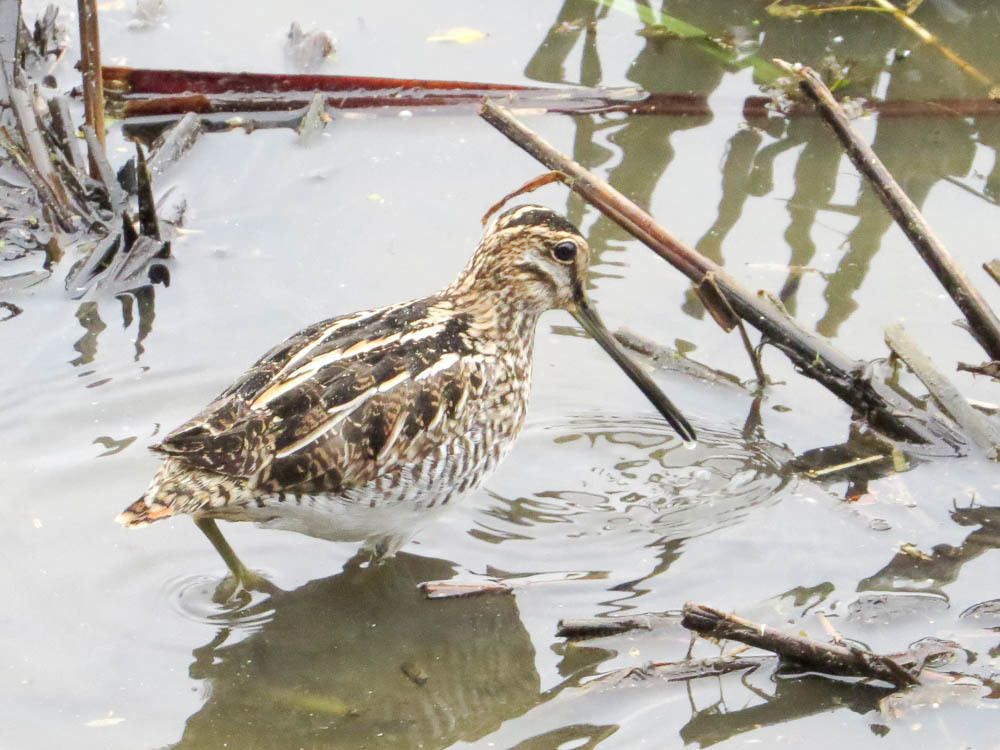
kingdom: Animalia
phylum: Chordata
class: Aves
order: Charadriiformes
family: Scolopacidae
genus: Gallinago
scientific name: Gallinago delicata
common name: Wilson's snipe
